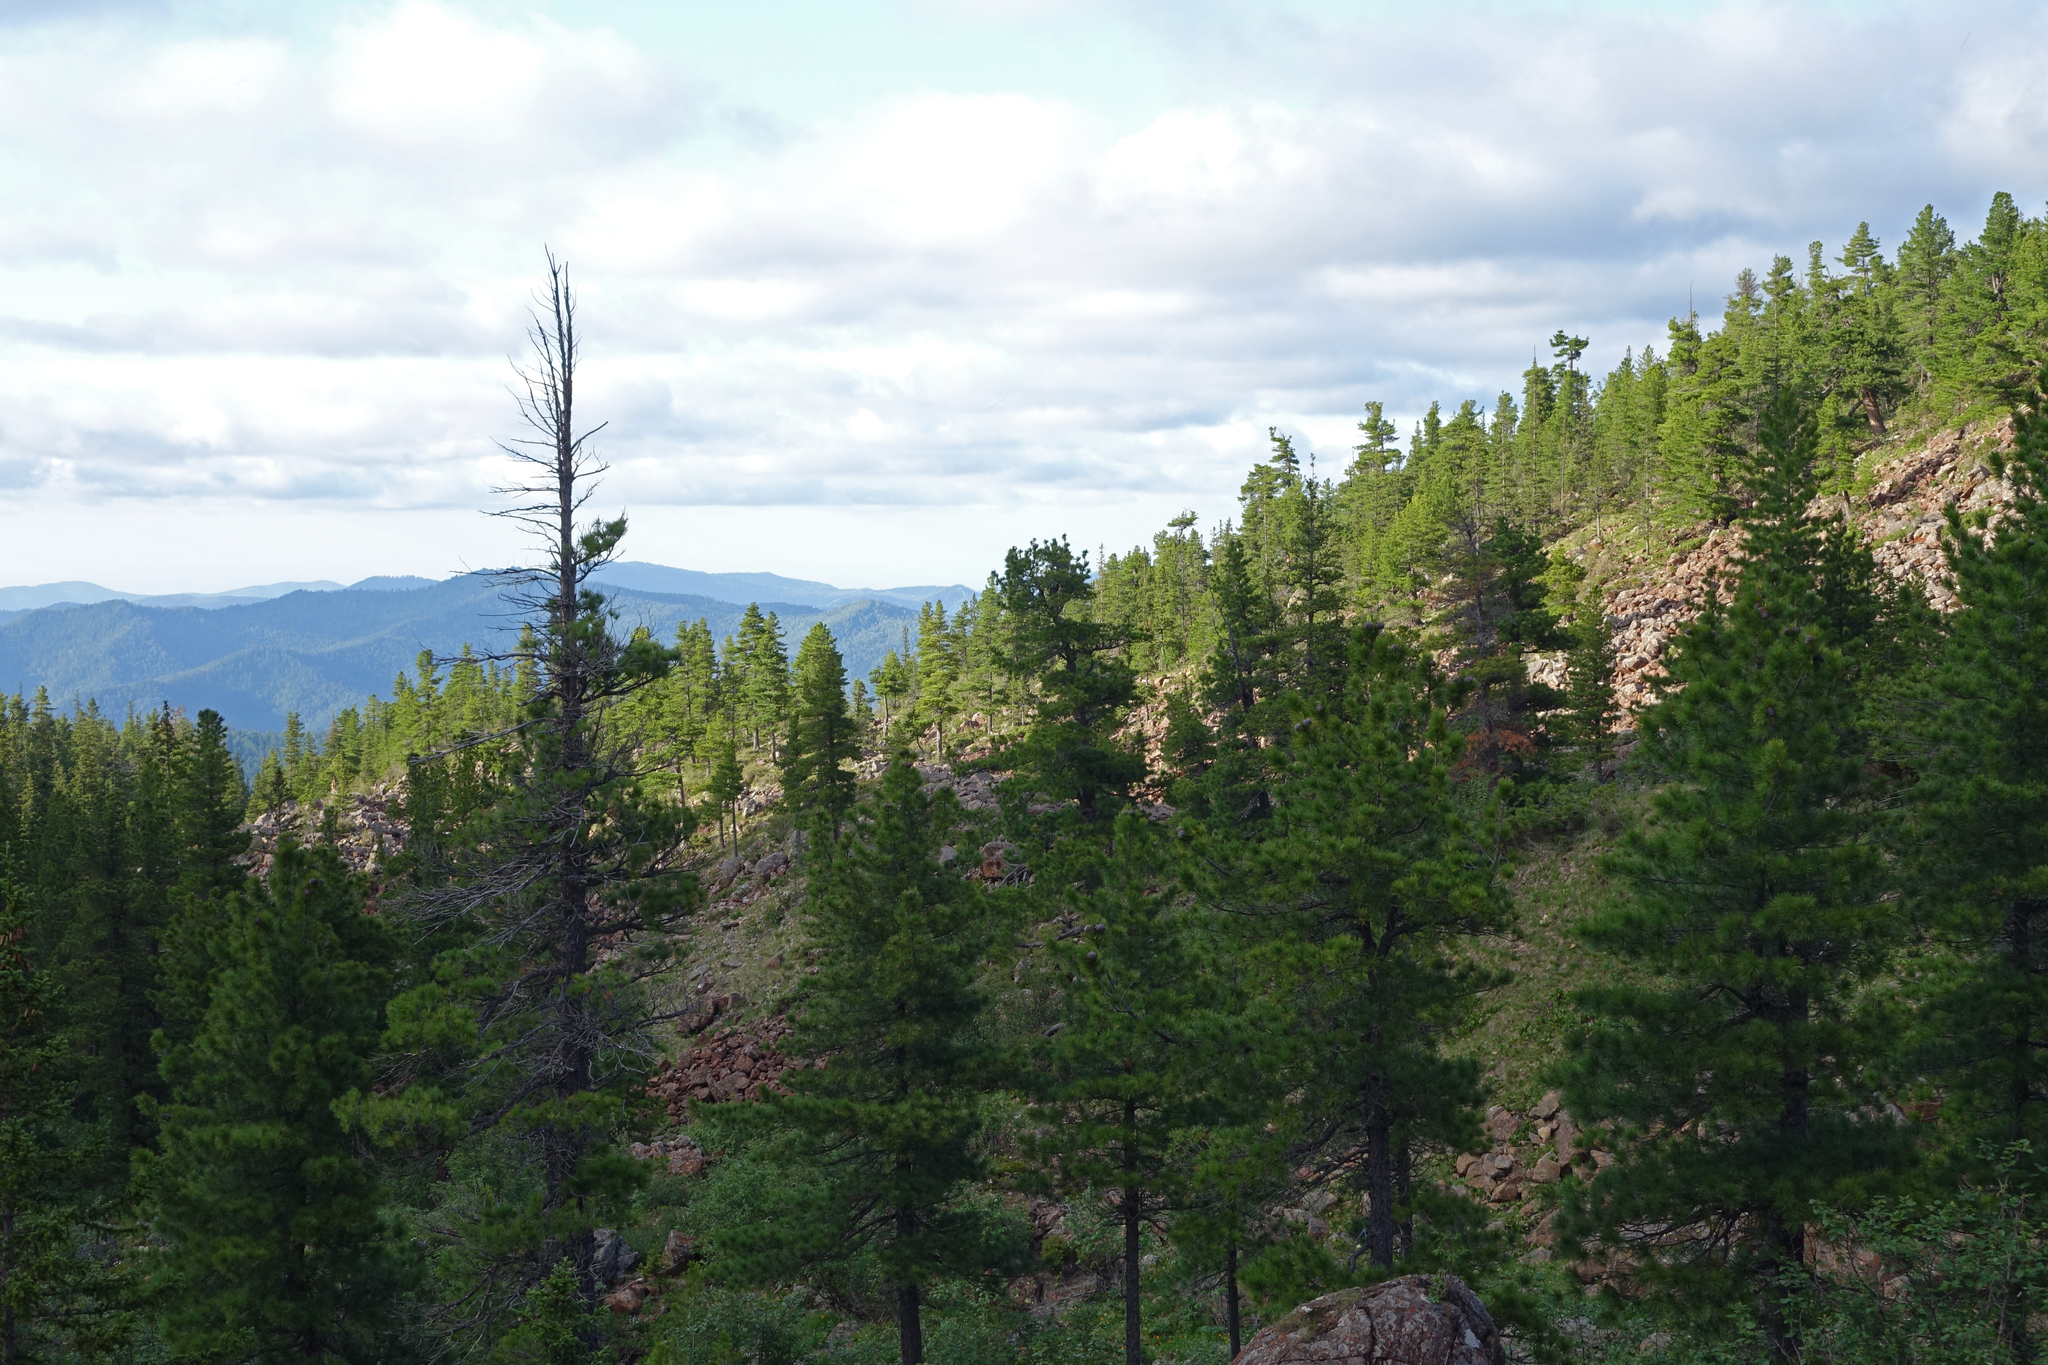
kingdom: Plantae
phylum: Tracheophyta
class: Pinopsida
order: Pinales
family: Pinaceae
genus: Pinus
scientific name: Pinus sibirica
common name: Siberian pine
